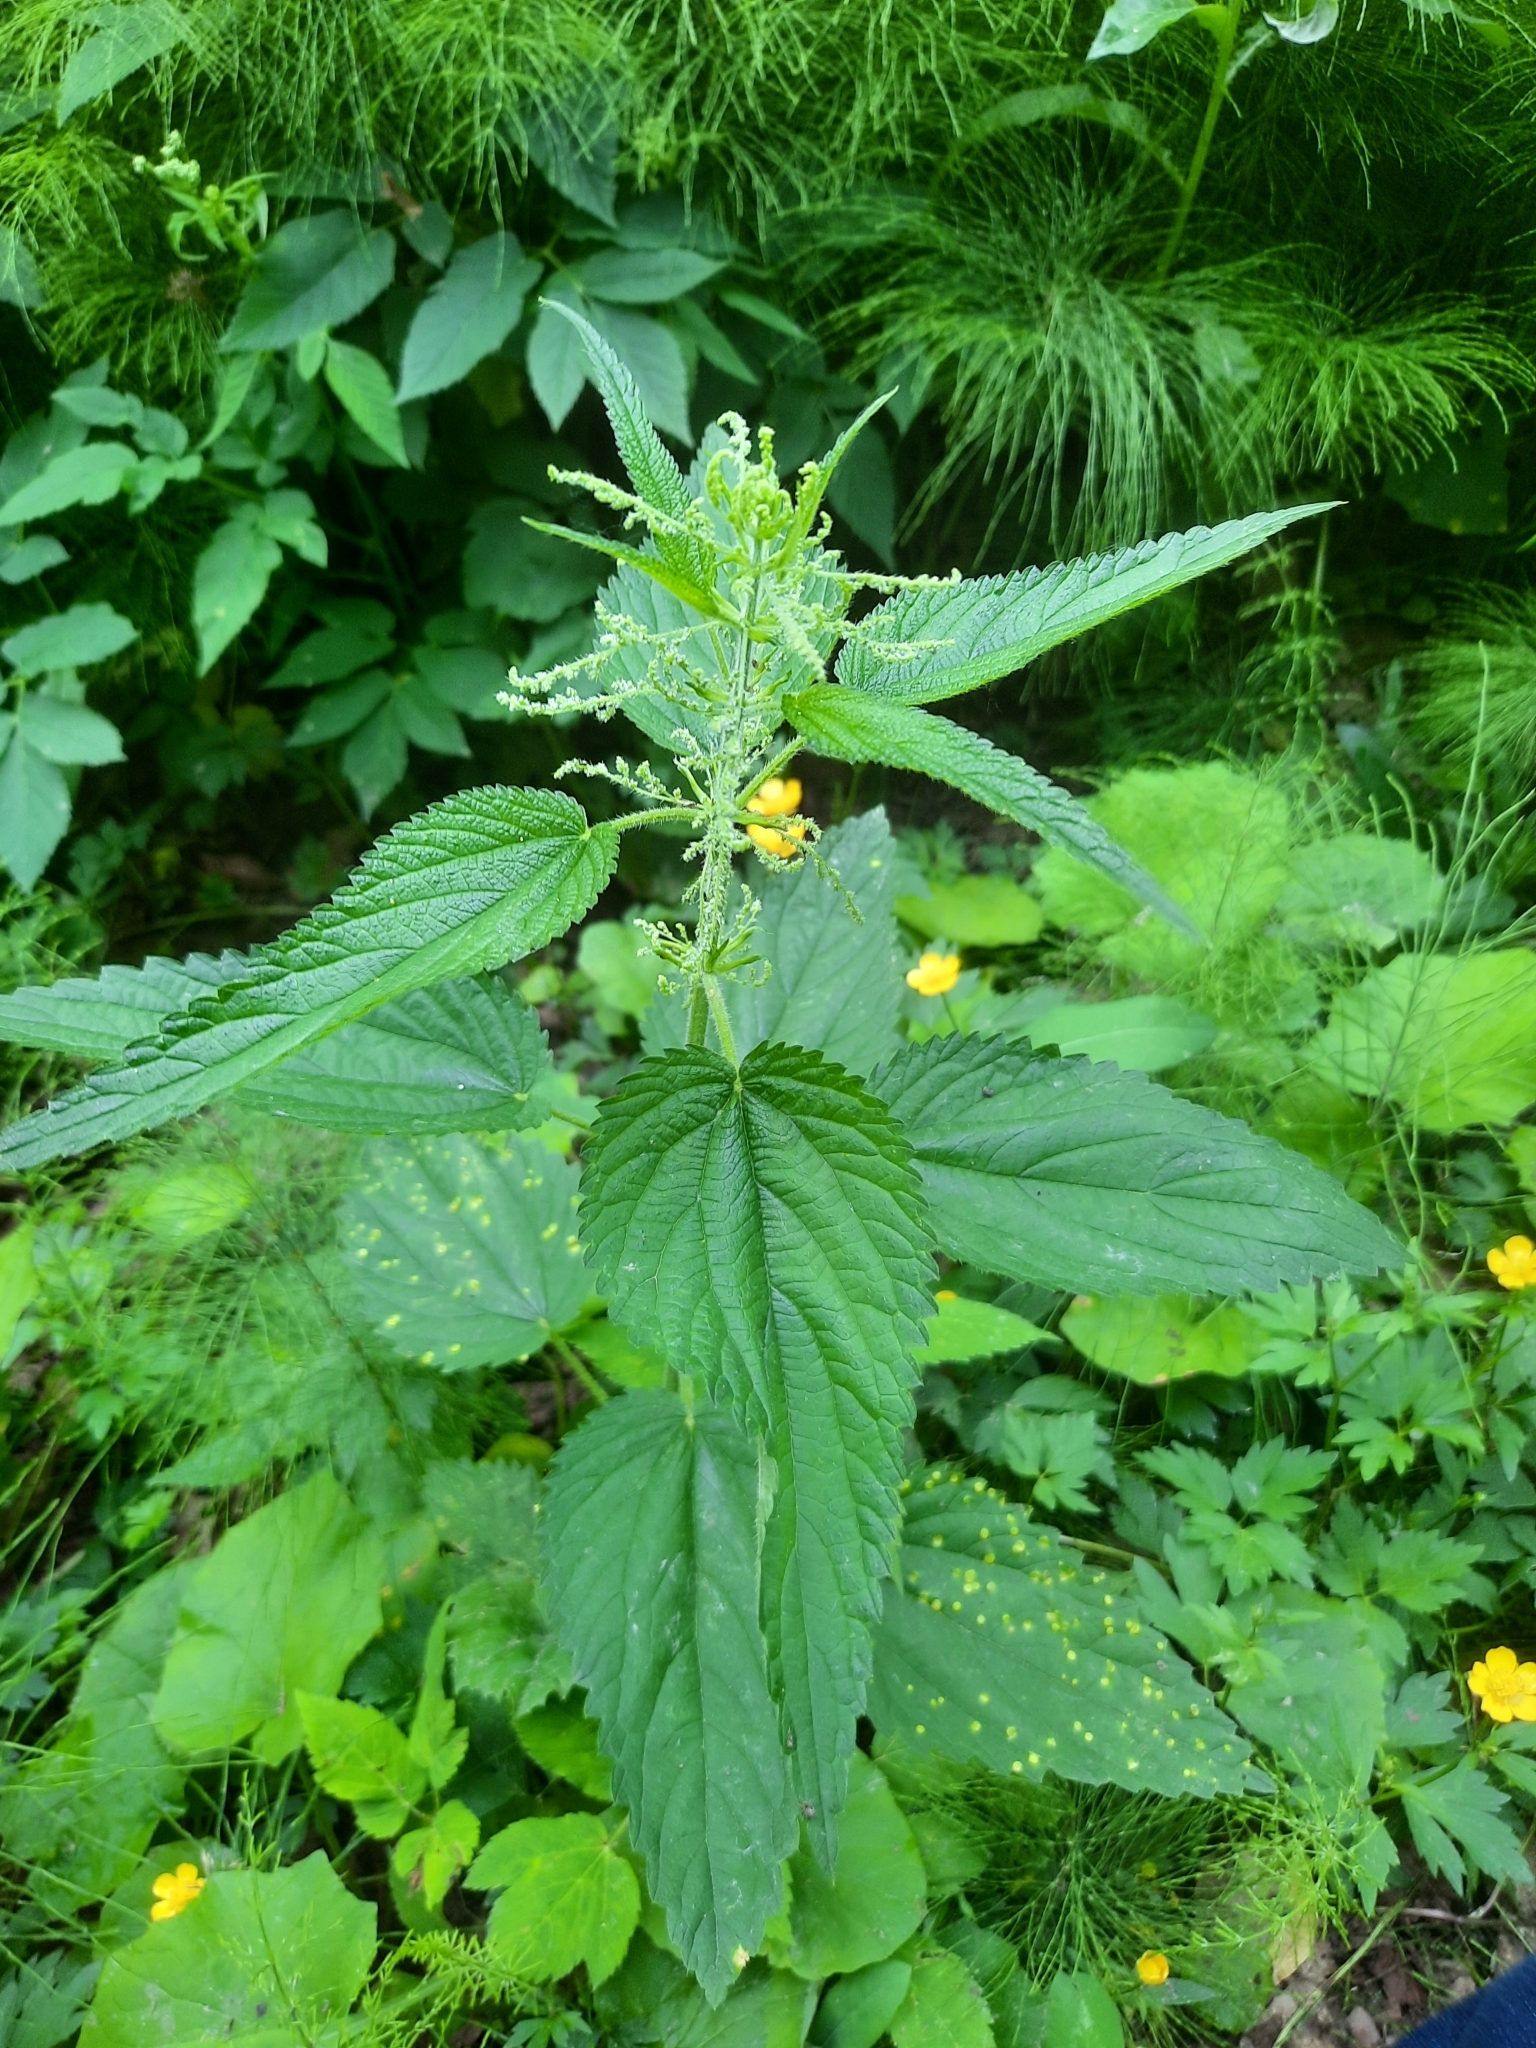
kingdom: Plantae
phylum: Tracheophyta
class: Magnoliopsida
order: Rosales
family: Urticaceae
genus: Urtica
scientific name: Urtica dioica
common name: Common nettle
